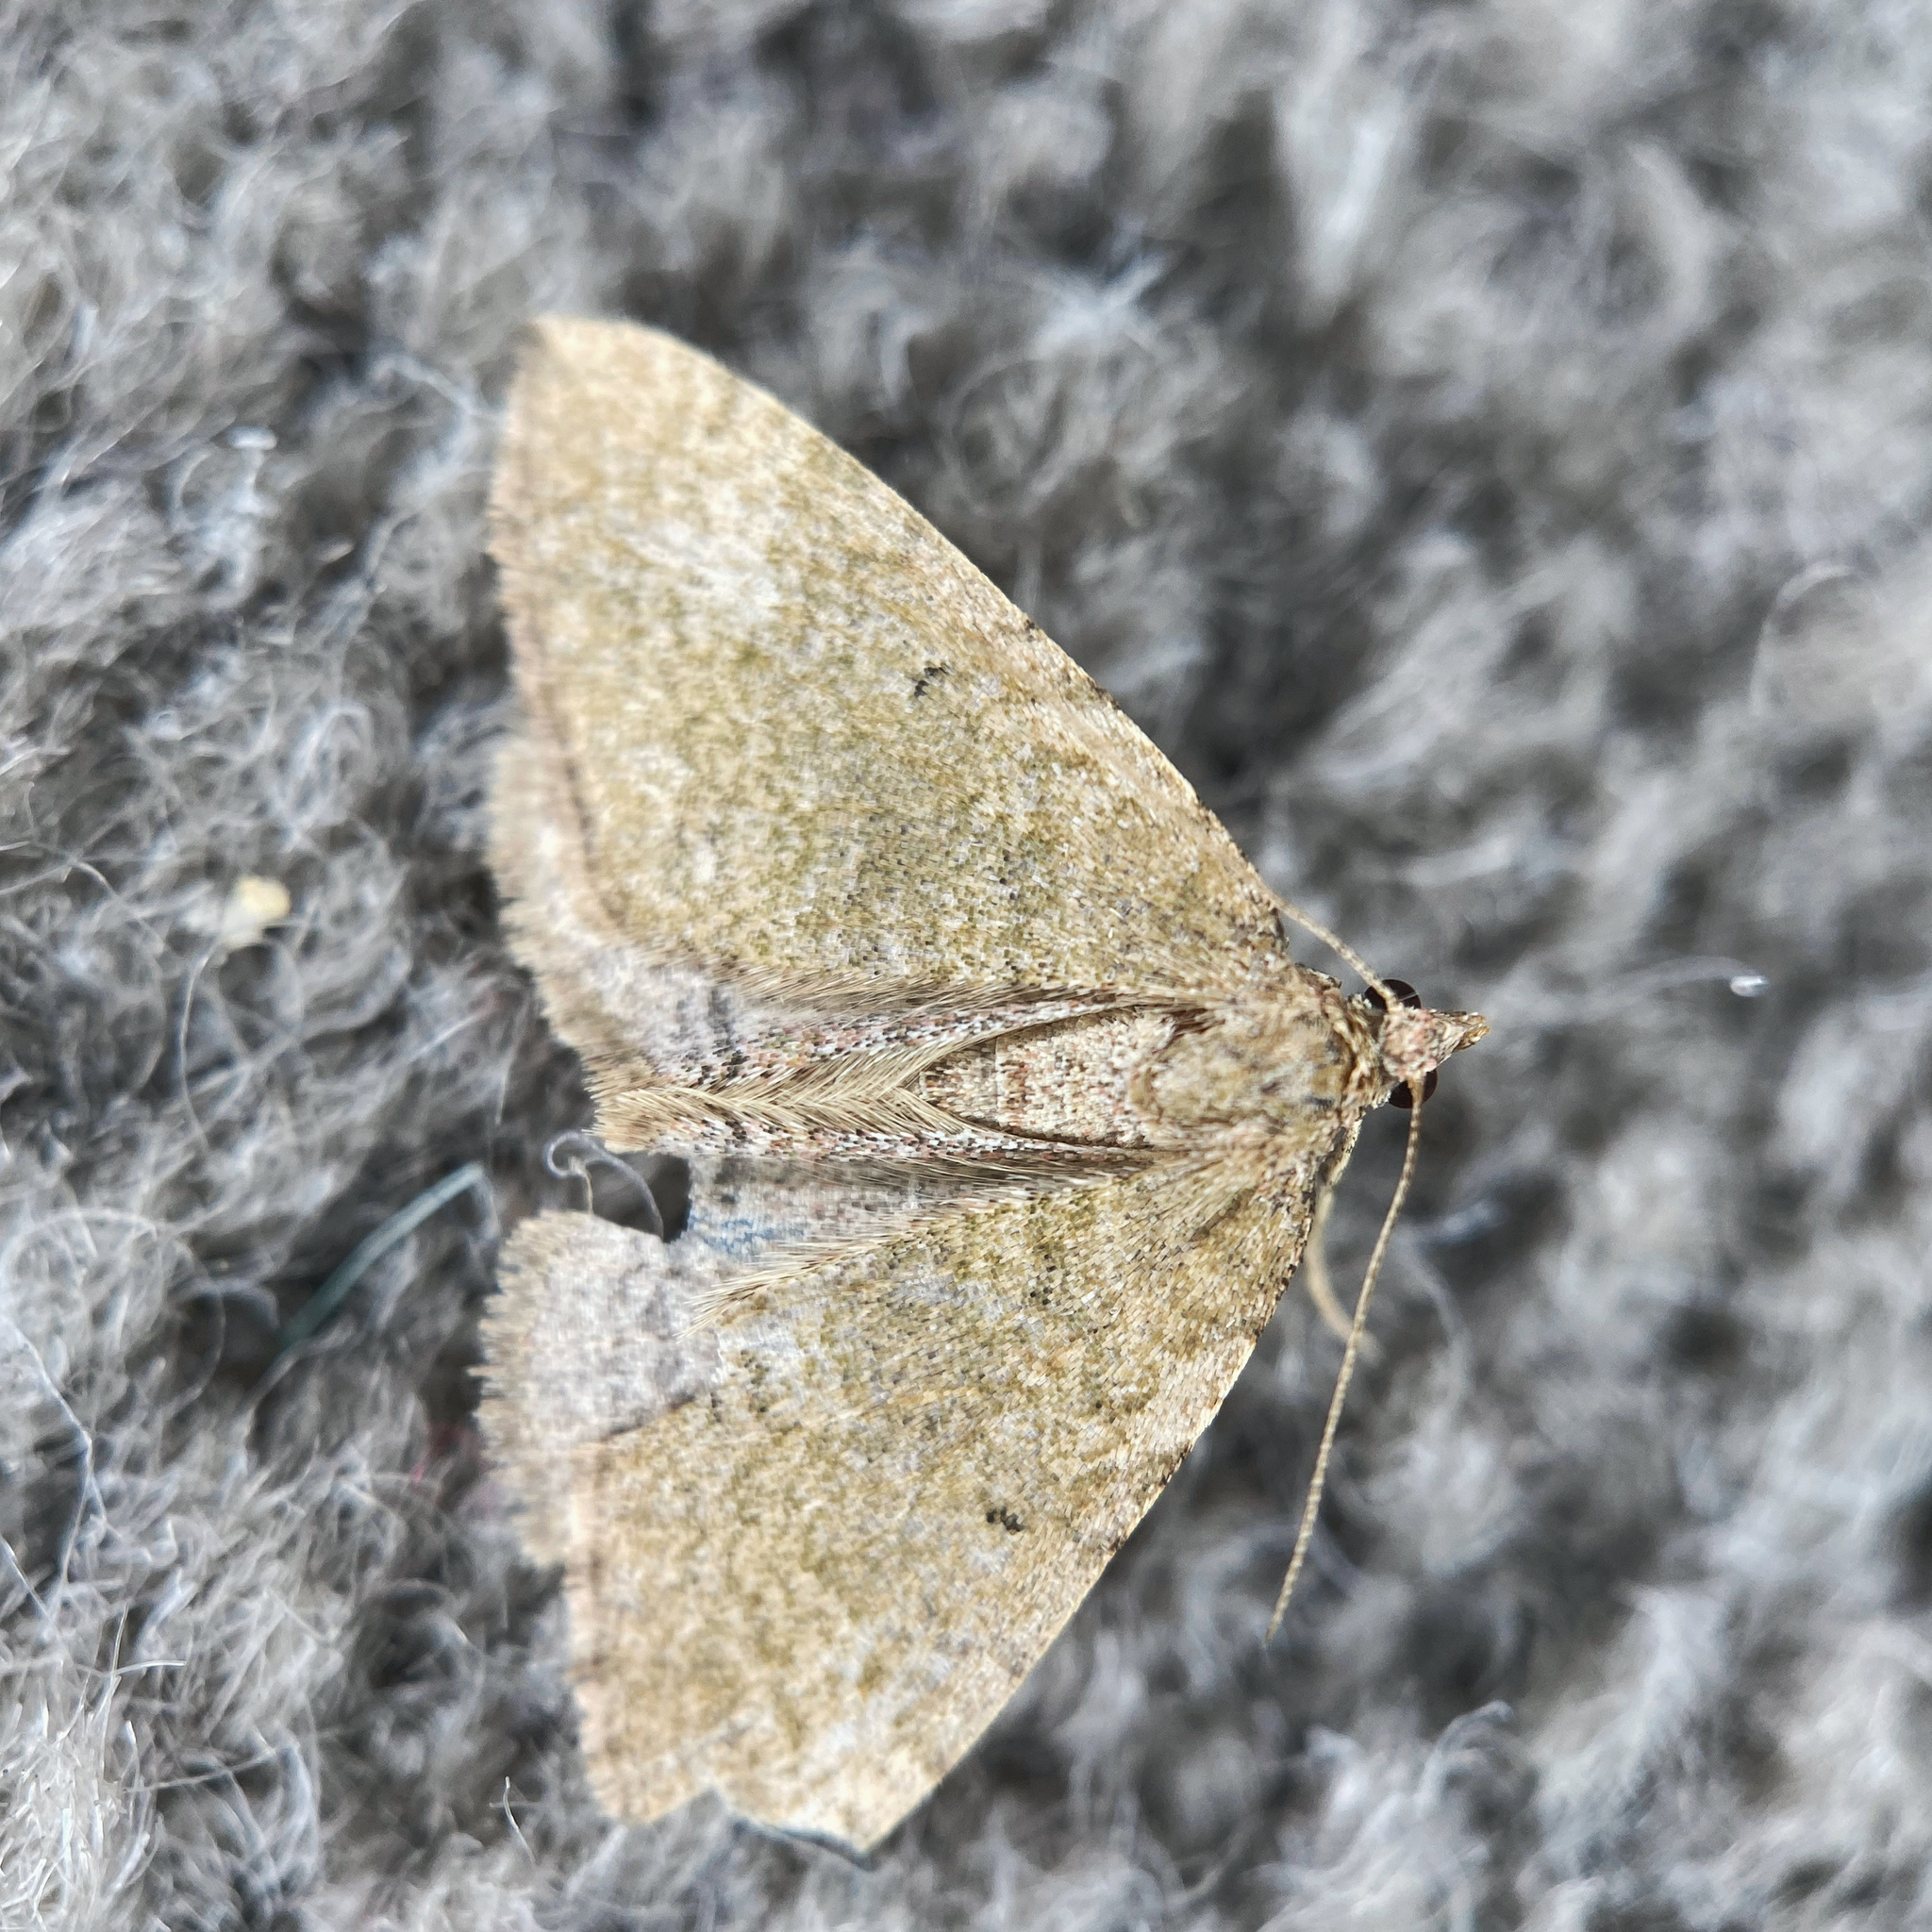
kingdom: Animalia
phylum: Arthropoda
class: Insecta
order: Lepidoptera
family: Geometridae
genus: Epyaxa
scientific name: Epyaxa rosearia
